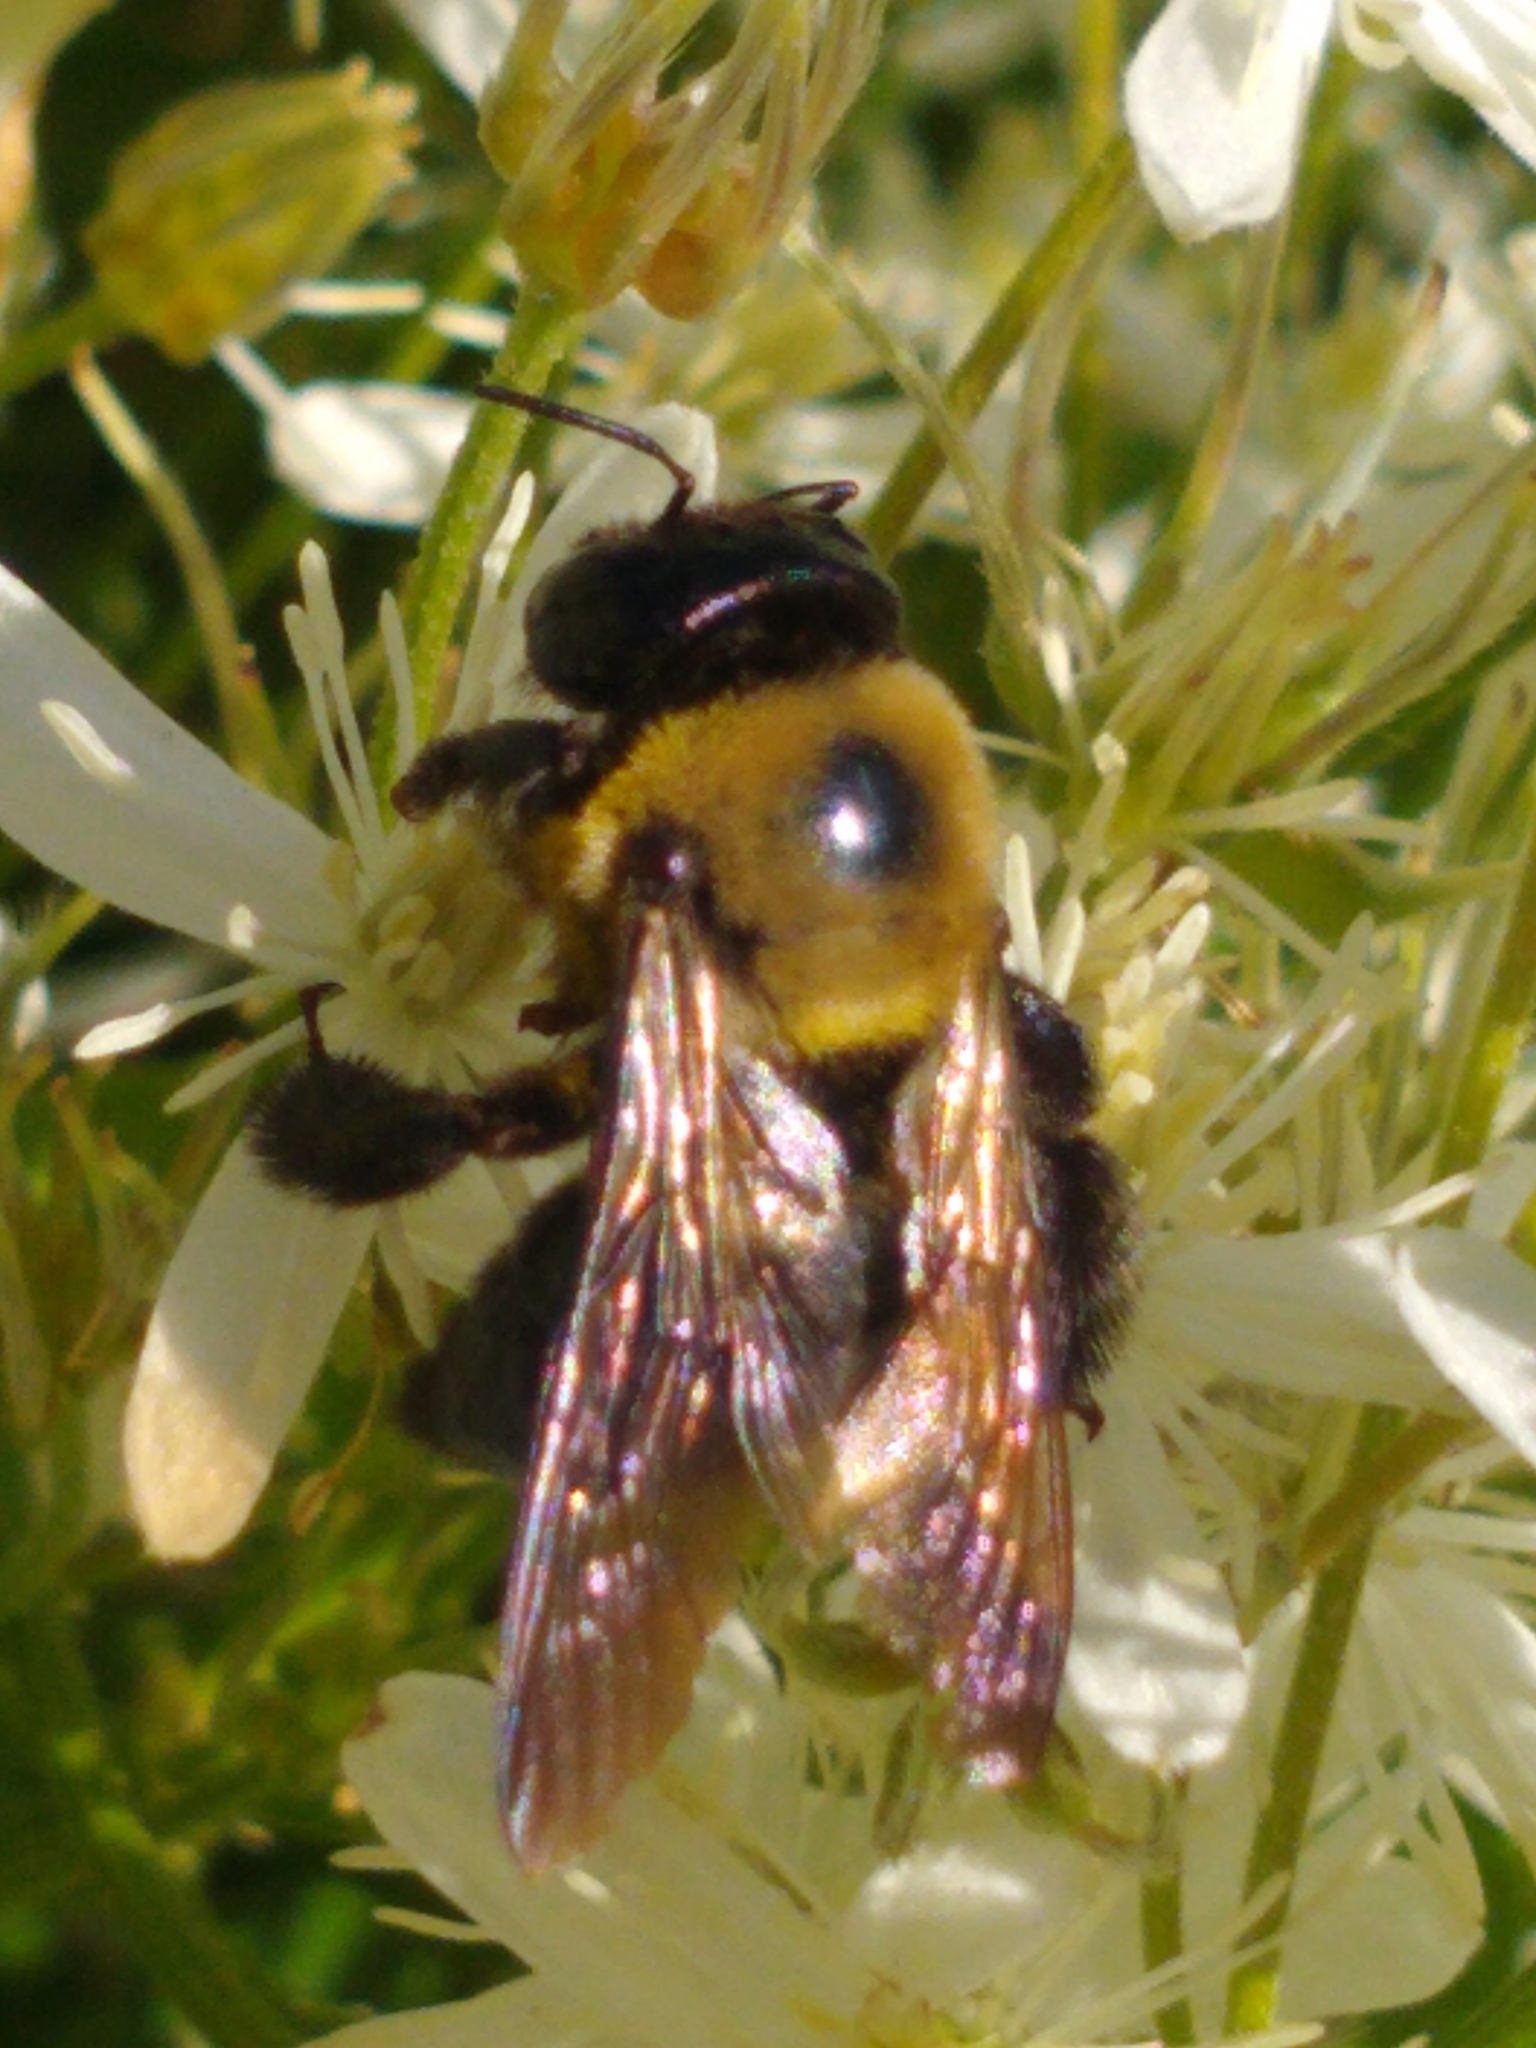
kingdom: Animalia
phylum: Arthropoda
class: Insecta
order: Hymenoptera
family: Apidae
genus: Xylocopa
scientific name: Xylocopa virginica
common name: Carpenter bee
